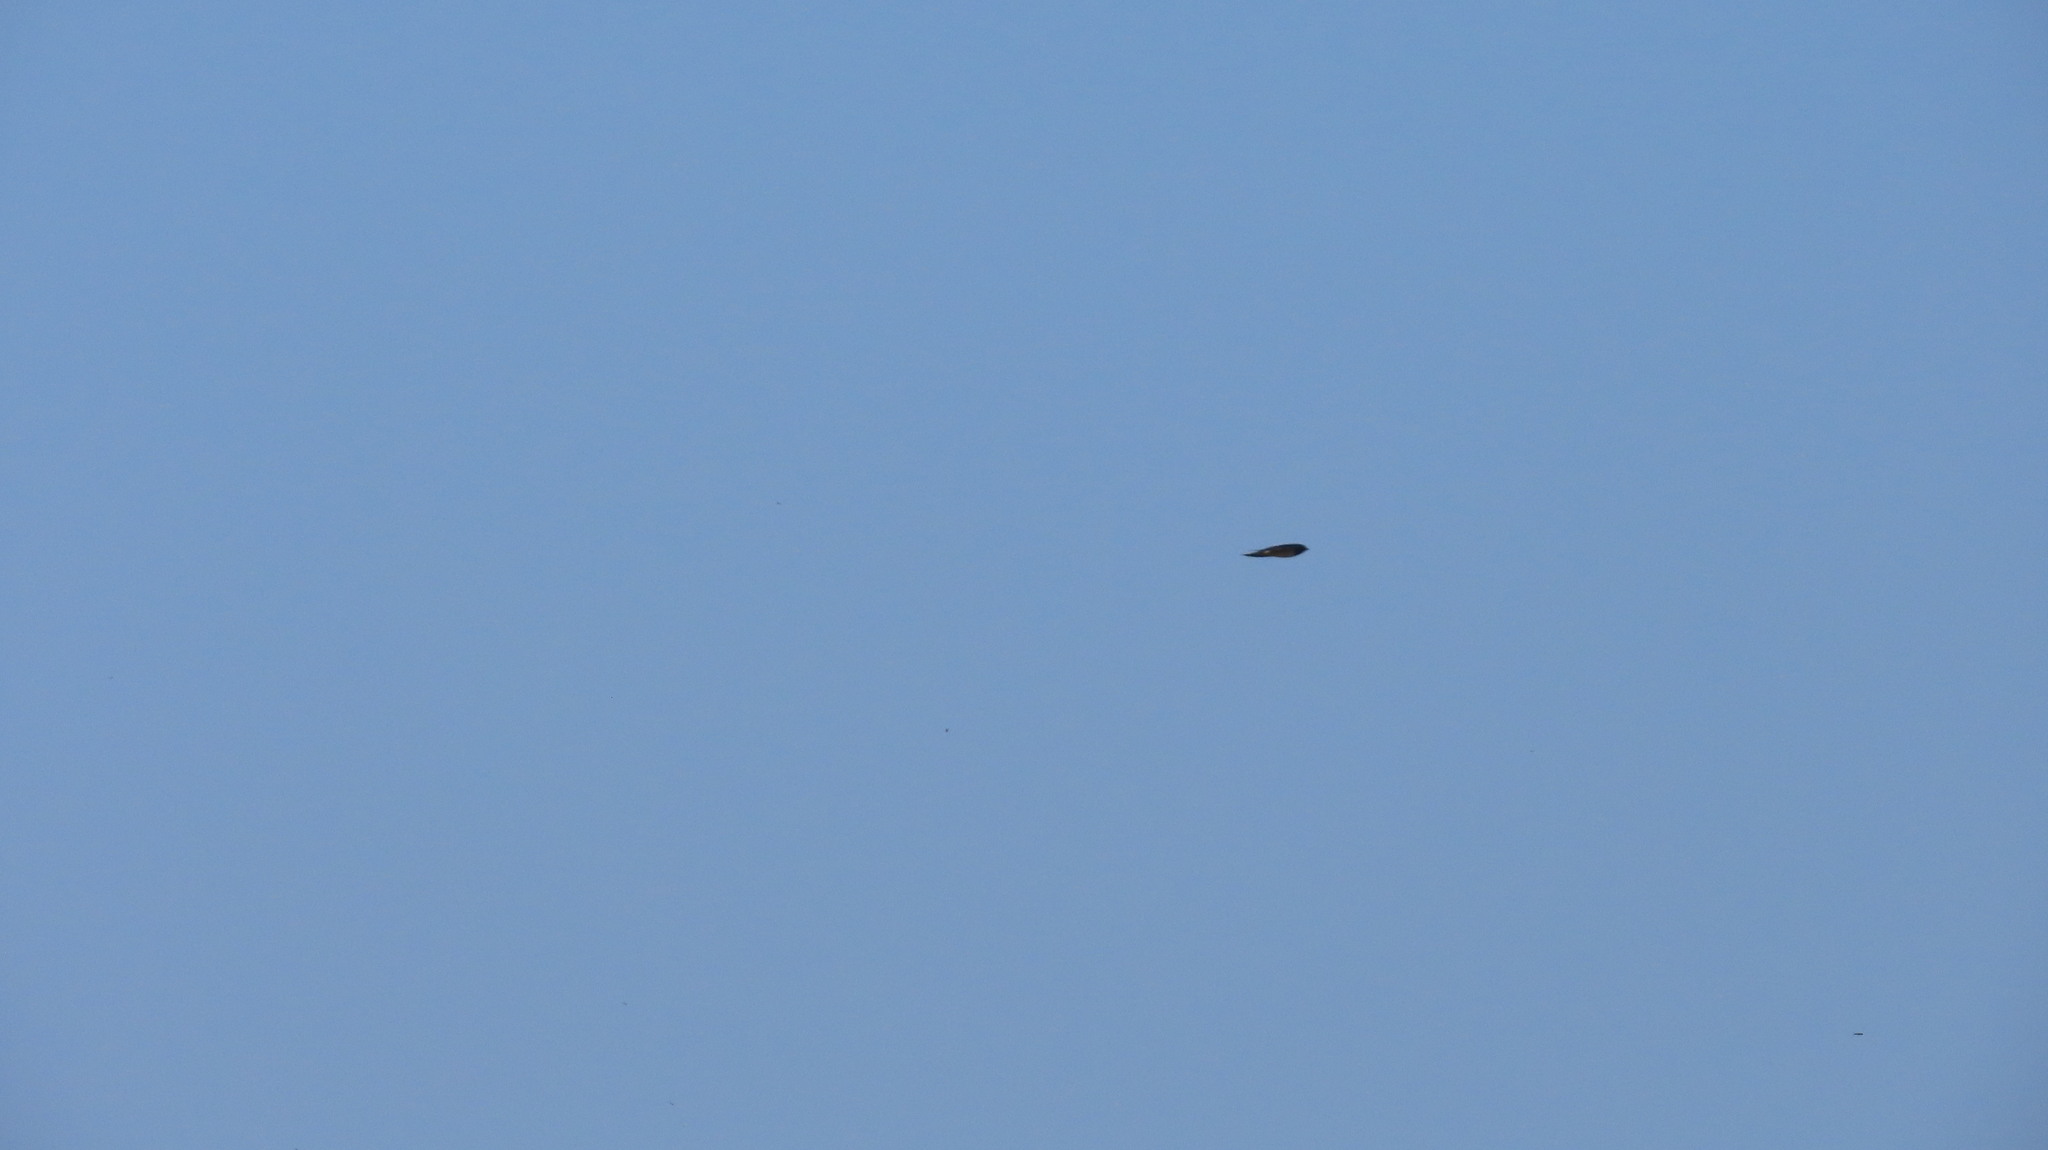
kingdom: Animalia
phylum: Chordata
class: Aves
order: Passeriformes
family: Hirundinidae
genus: Hirundo
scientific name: Hirundo rustica
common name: Barn swallow
